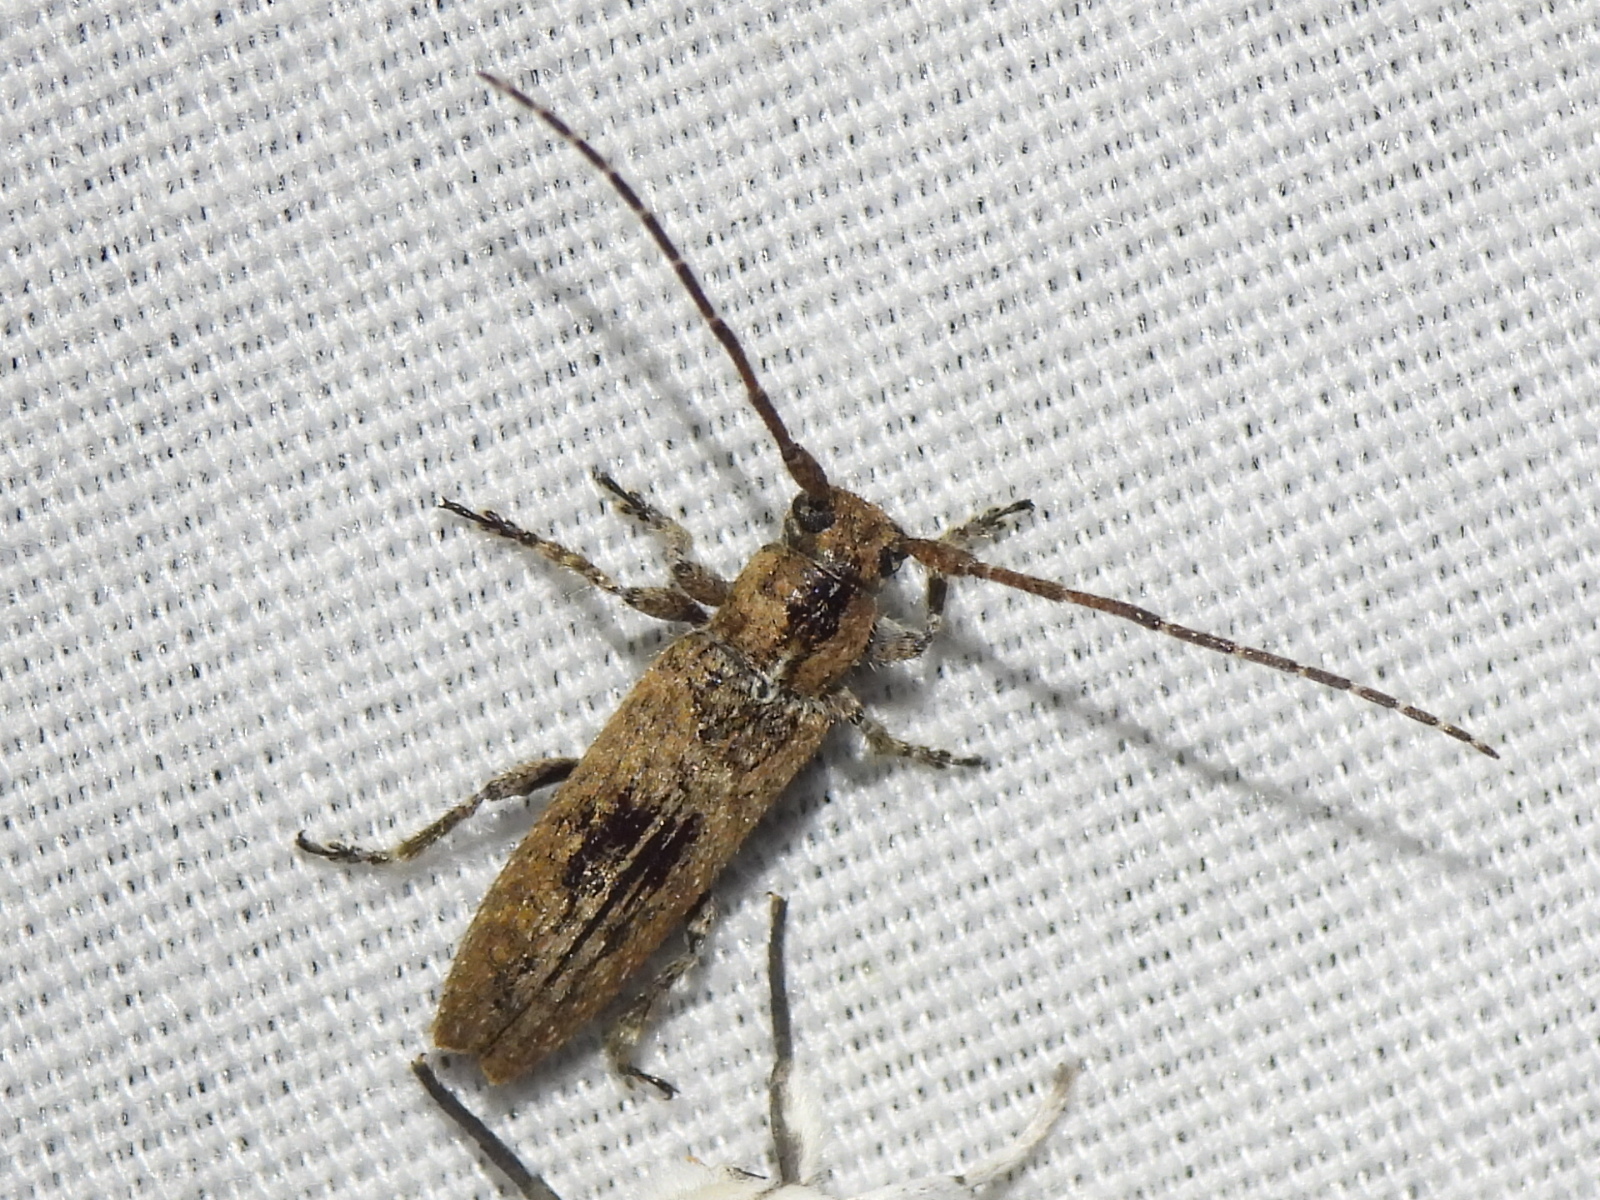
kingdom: Animalia
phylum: Arthropoda
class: Insecta
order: Coleoptera
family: Cerambycidae
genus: Ataxia
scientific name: Ataxia crypta
